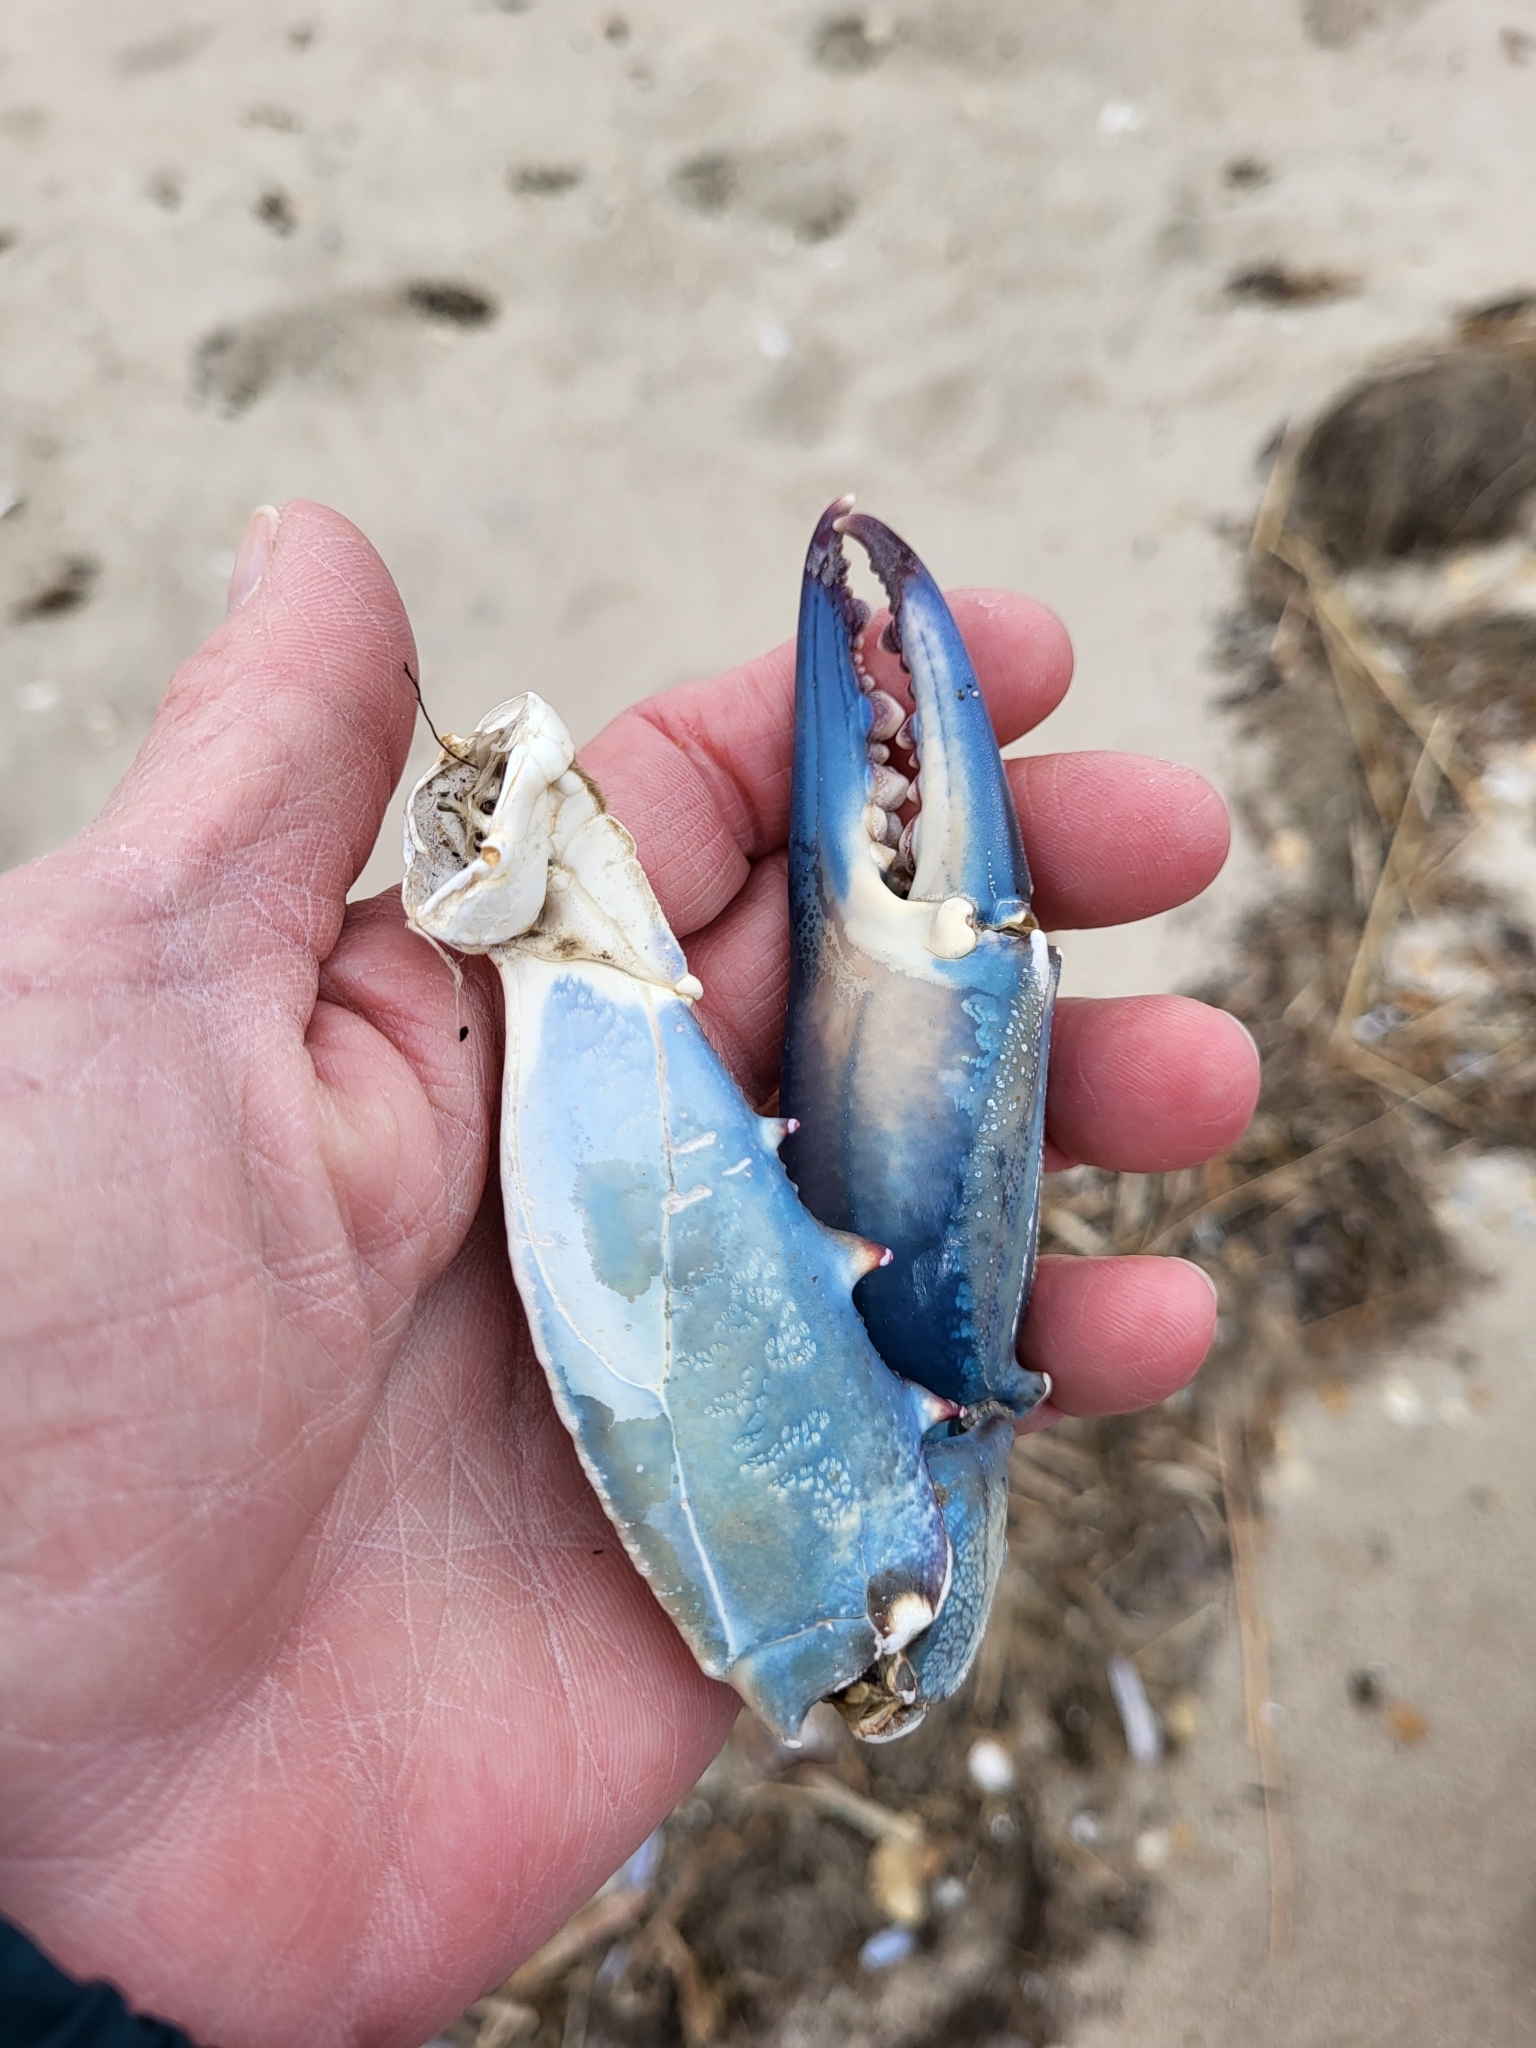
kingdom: Animalia
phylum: Arthropoda
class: Malacostraca
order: Decapoda
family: Portunidae
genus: Callinectes
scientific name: Callinectes sapidus
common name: Blue crab
